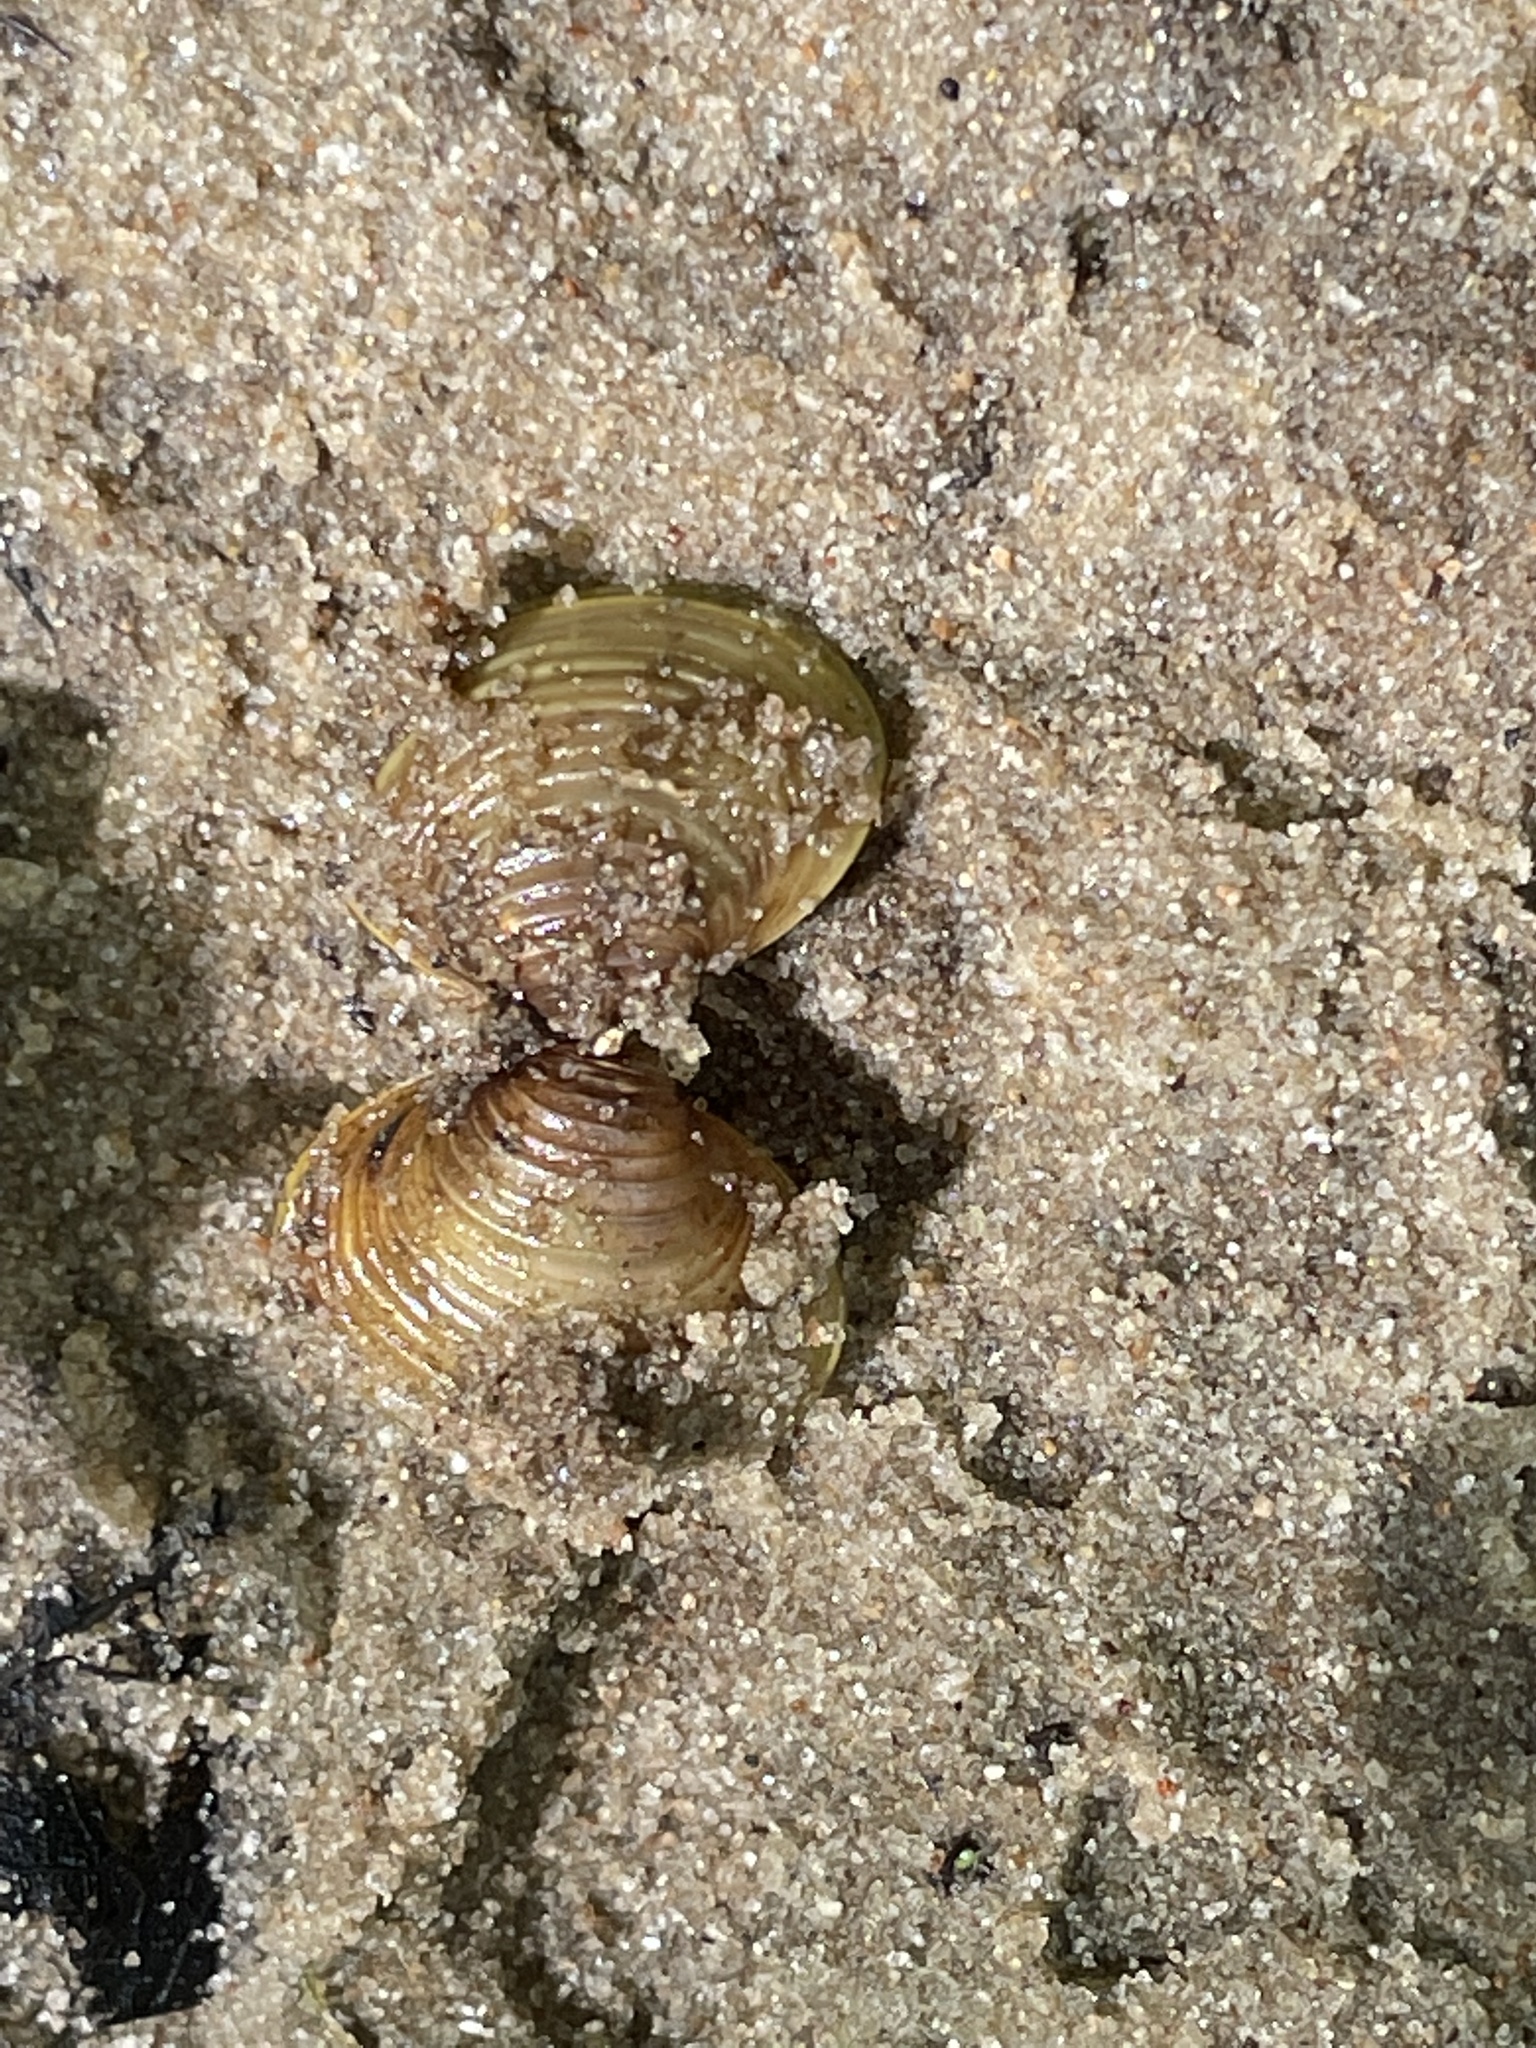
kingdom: Animalia
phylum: Mollusca
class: Bivalvia
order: Venerida
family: Cyrenidae
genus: Corbicula
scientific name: Corbicula fluminea
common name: Asian clam
